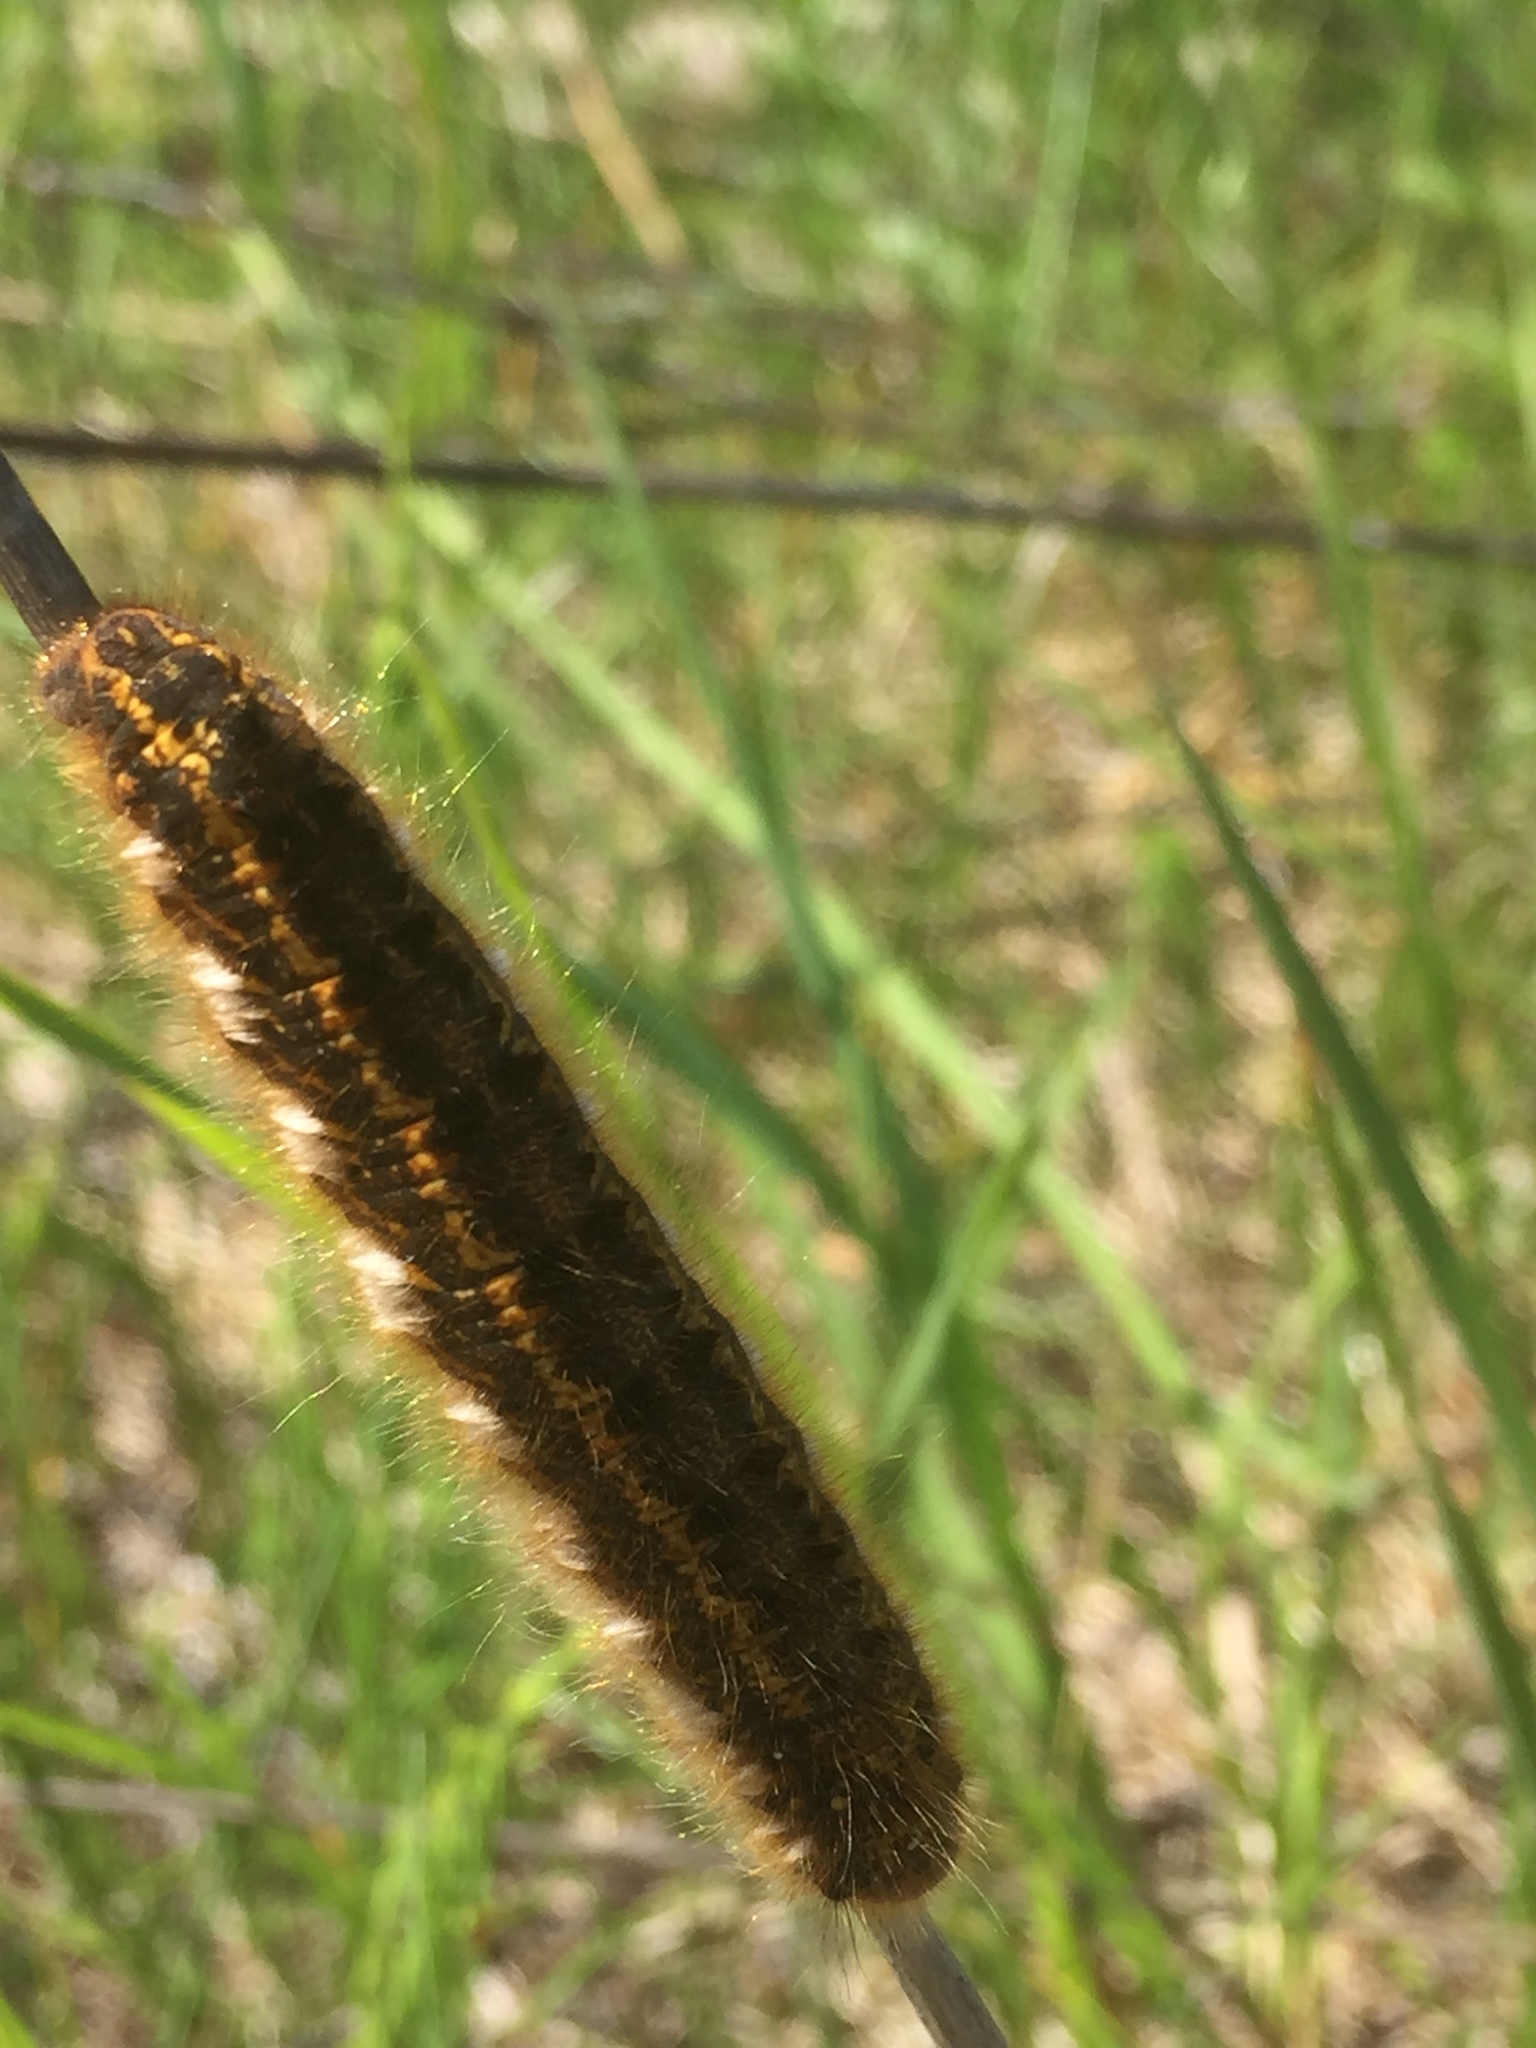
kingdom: Animalia
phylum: Arthropoda
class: Insecta
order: Lepidoptera
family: Lasiocampidae
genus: Euthrix
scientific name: Euthrix potatoria
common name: Drinker
